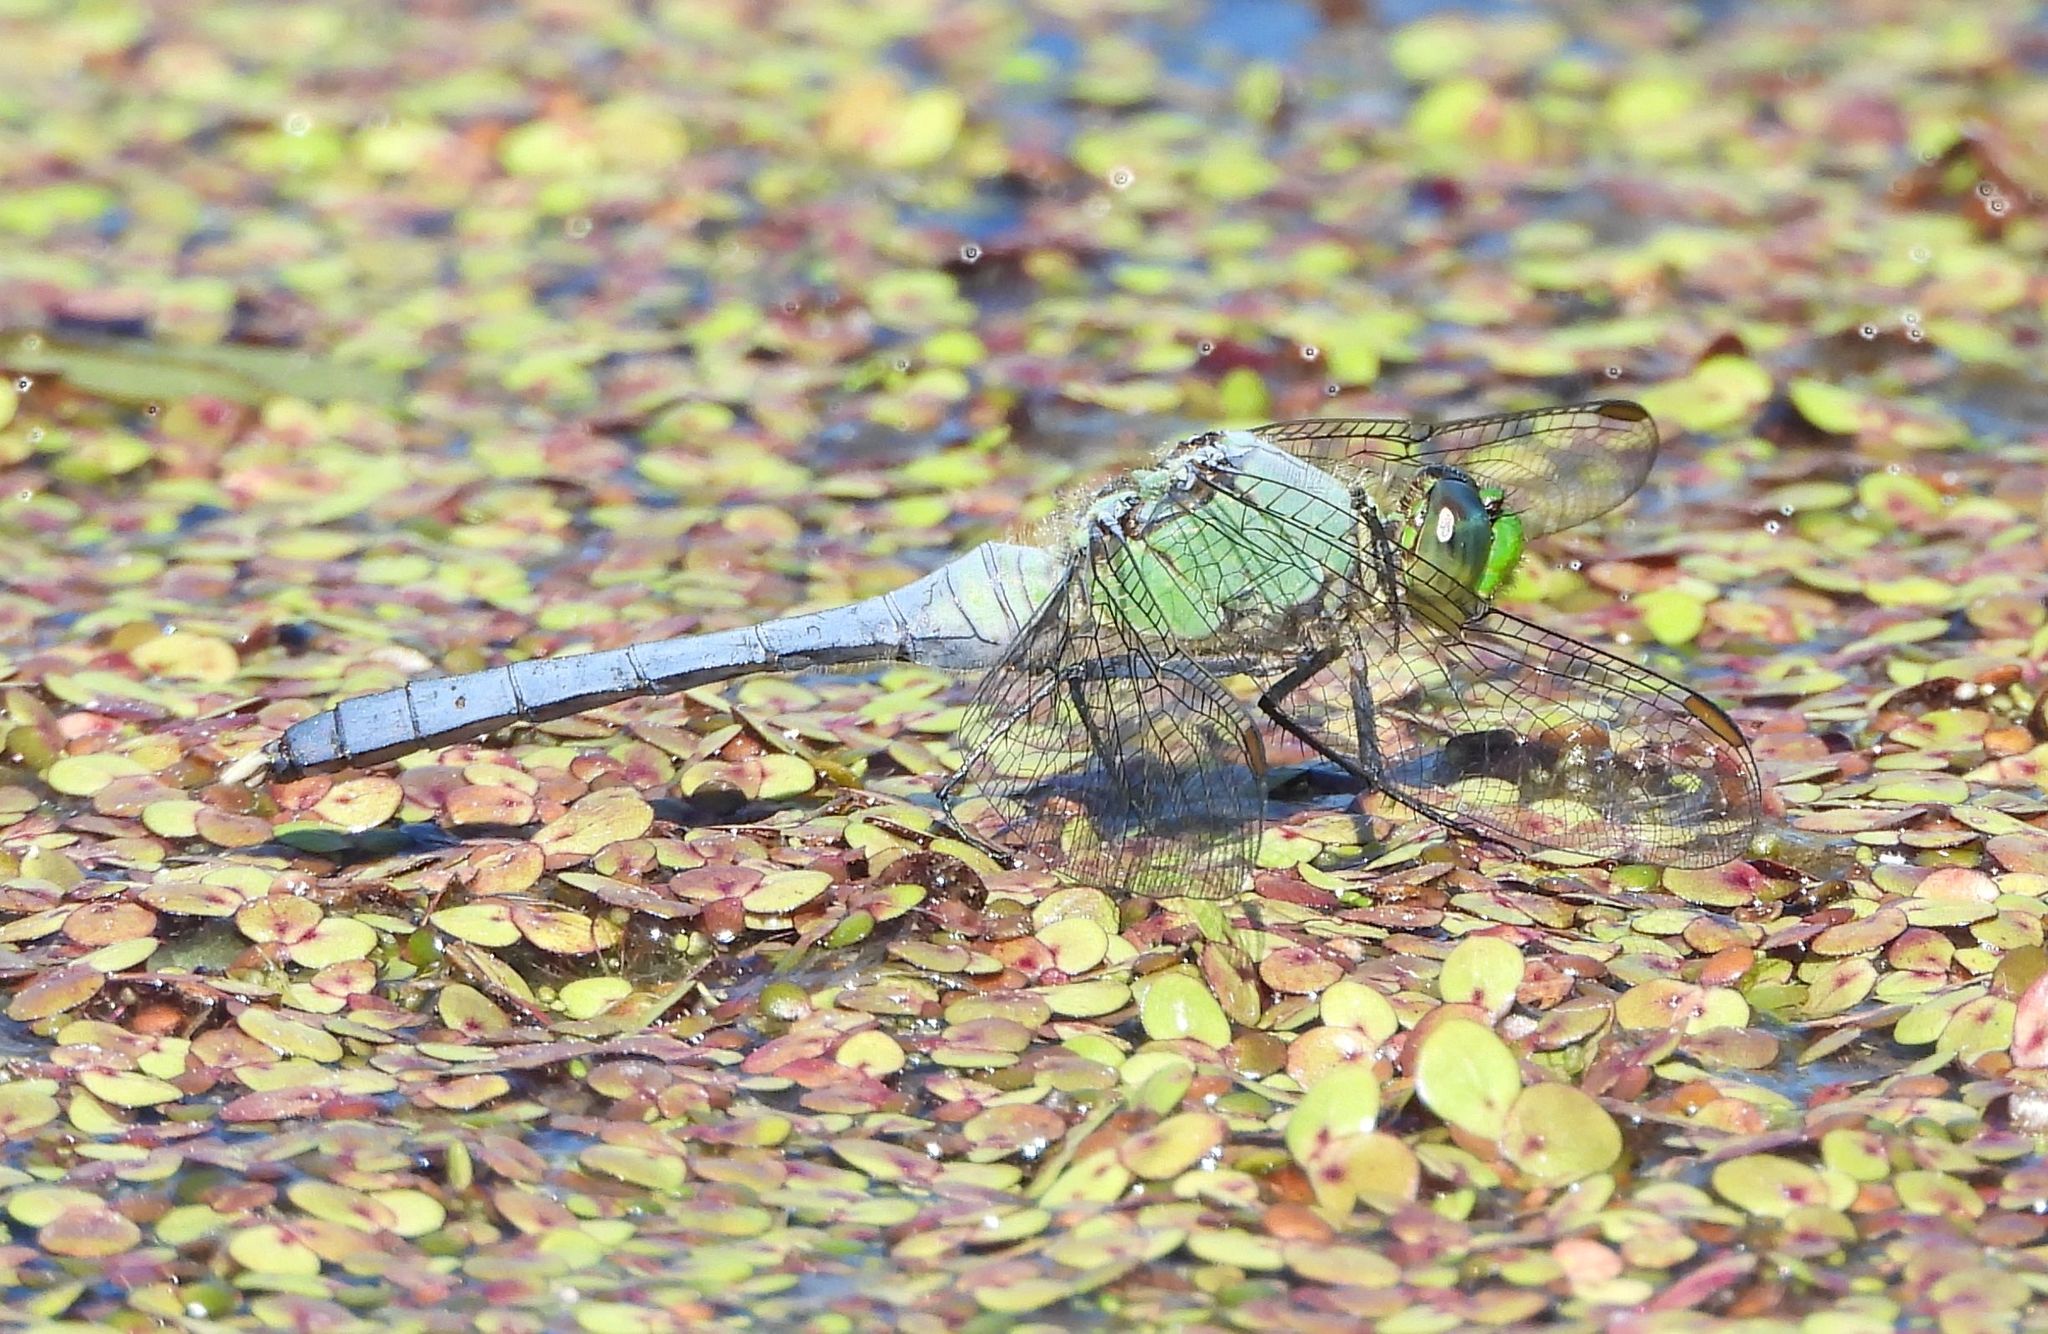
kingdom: Animalia
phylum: Arthropoda
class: Insecta
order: Odonata
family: Libellulidae
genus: Erythemis
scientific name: Erythemis simplicicollis
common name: Eastern pondhawk
